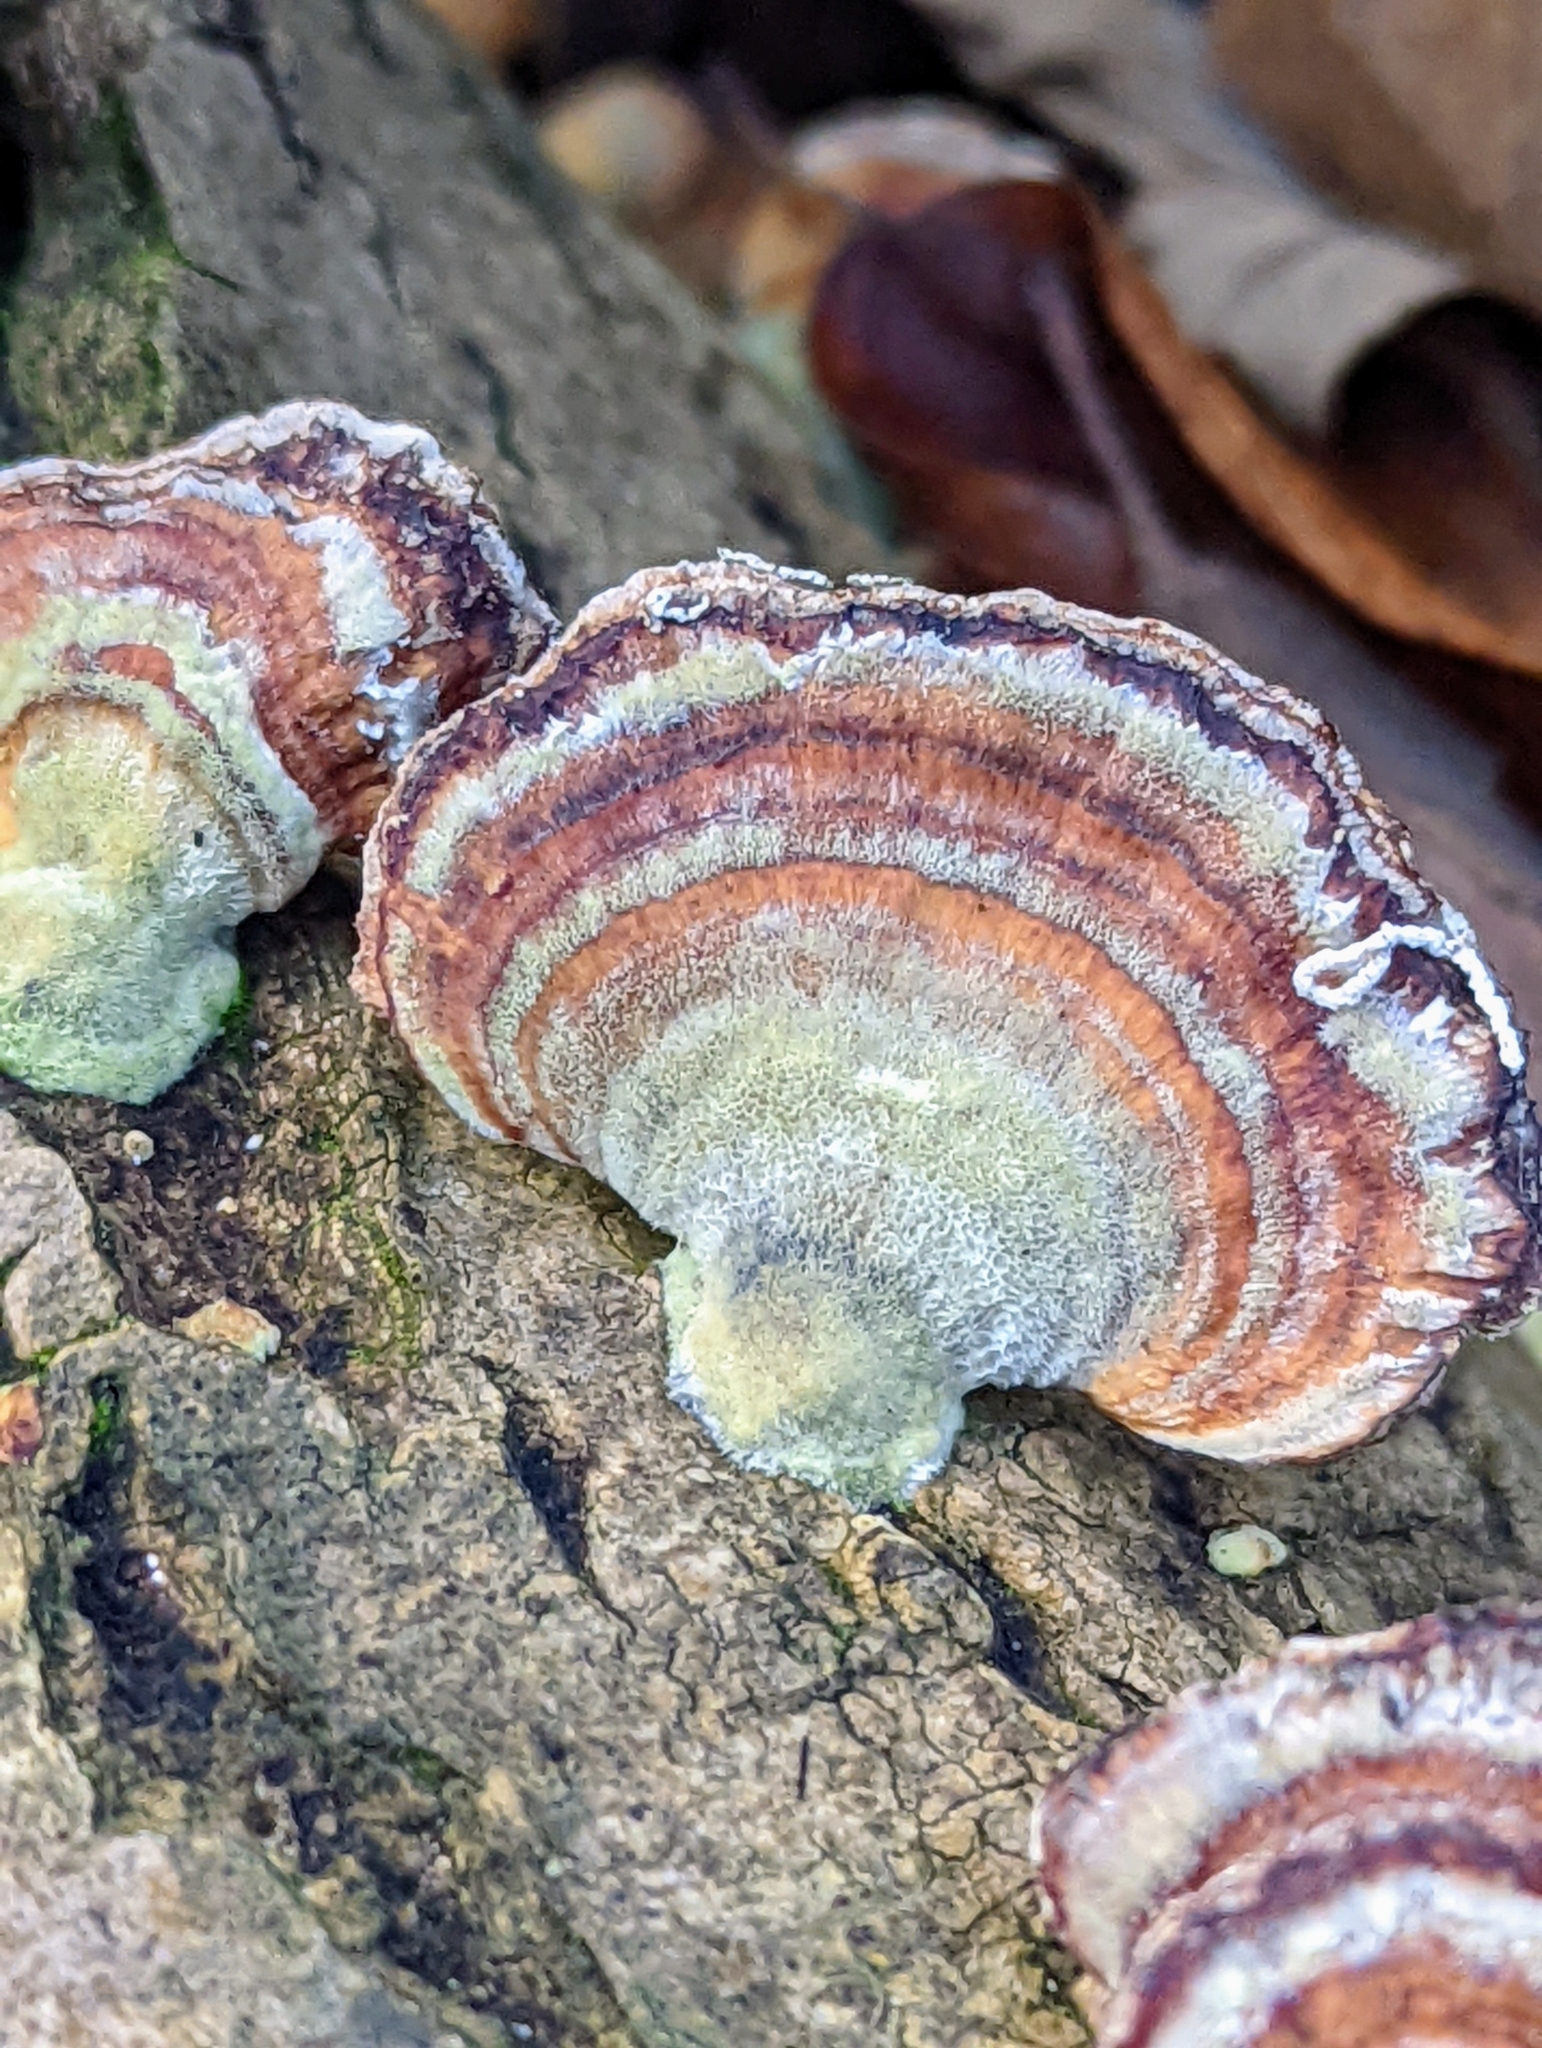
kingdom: Fungi
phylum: Basidiomycota
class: Agaricomycetes
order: Polyporales
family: Polyporaceae
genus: Trametes
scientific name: Trametes versicolor
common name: Turkeytail
